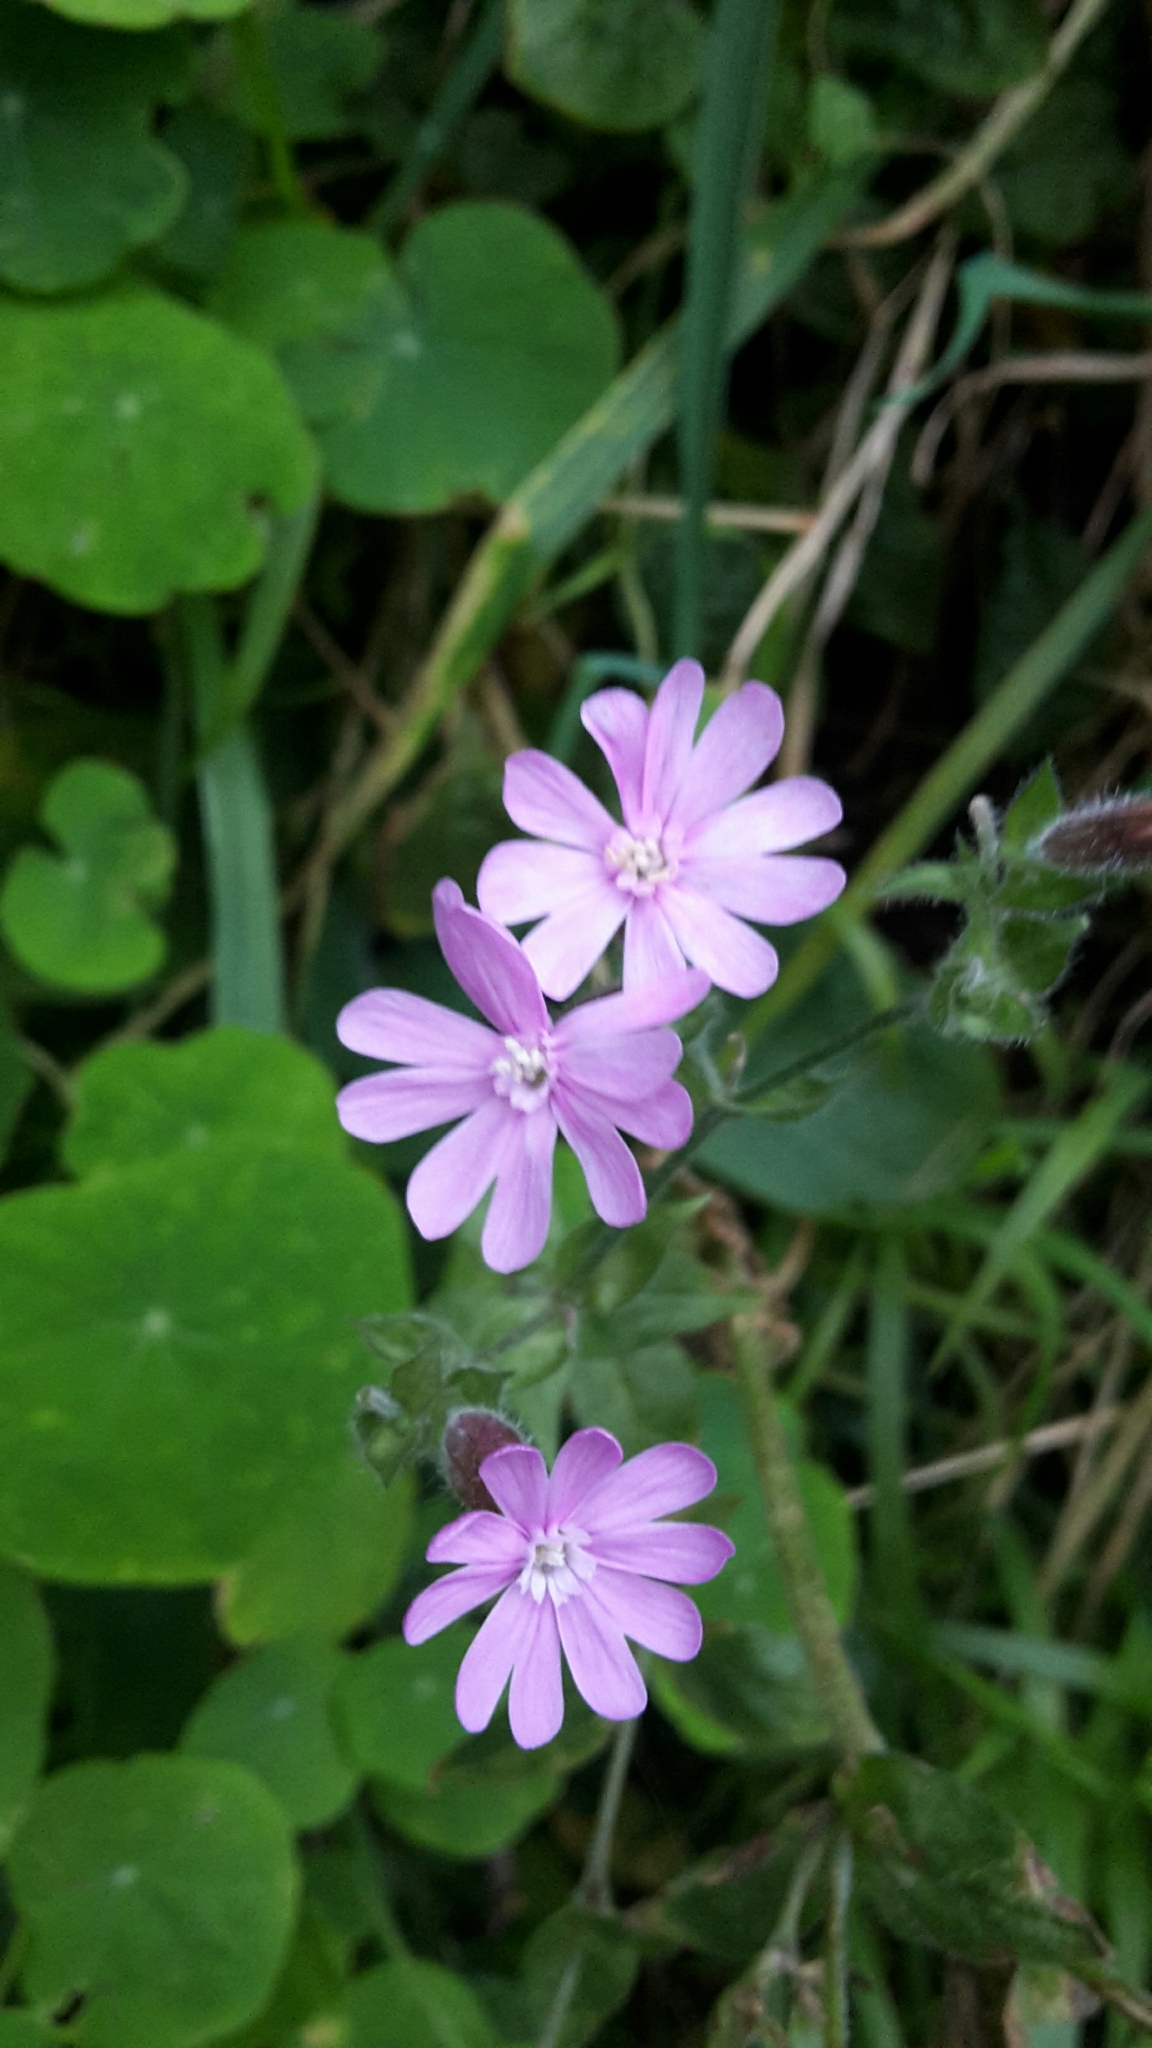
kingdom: Plantae
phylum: Tracheophyta
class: Magnoliopsida
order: Caryophyllales
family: Caryophyllaceae
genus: Silene
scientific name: Silene dioica
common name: Red campion
